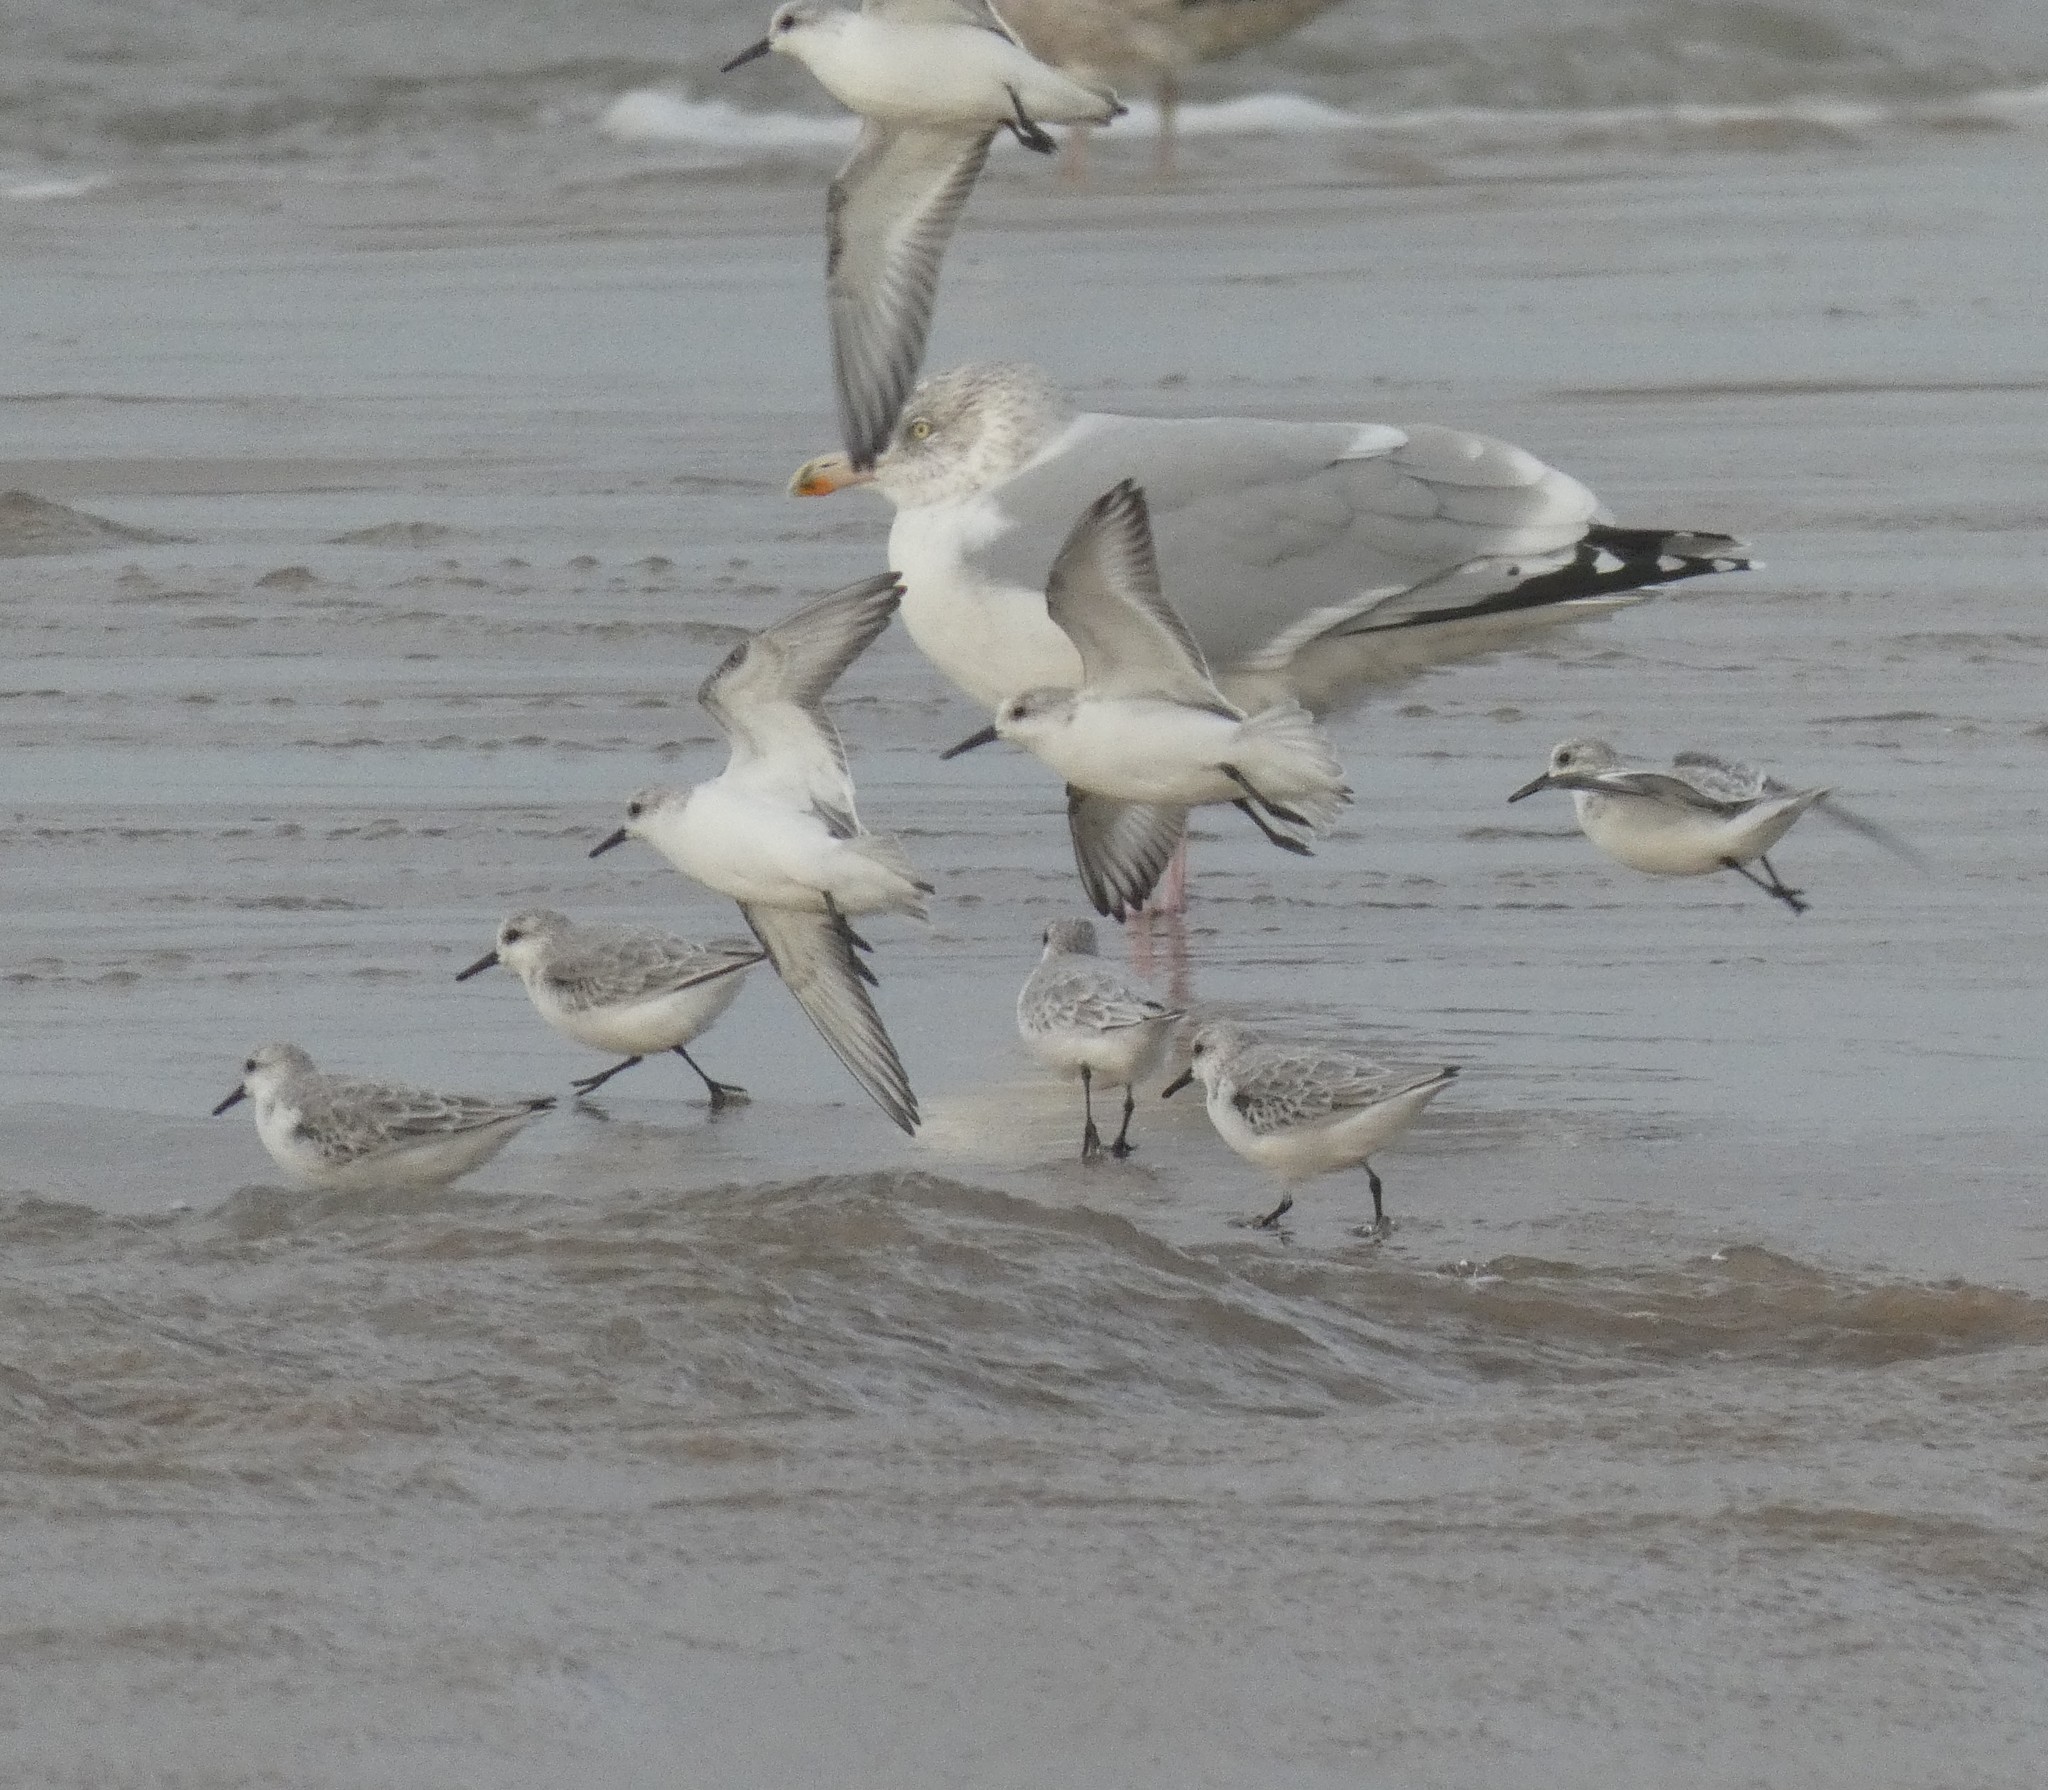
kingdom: Animalia
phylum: Chordata
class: Aves
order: Charadriiformes
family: Scolopacidae
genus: Calidris
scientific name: Calidris alba
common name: Sanderling
